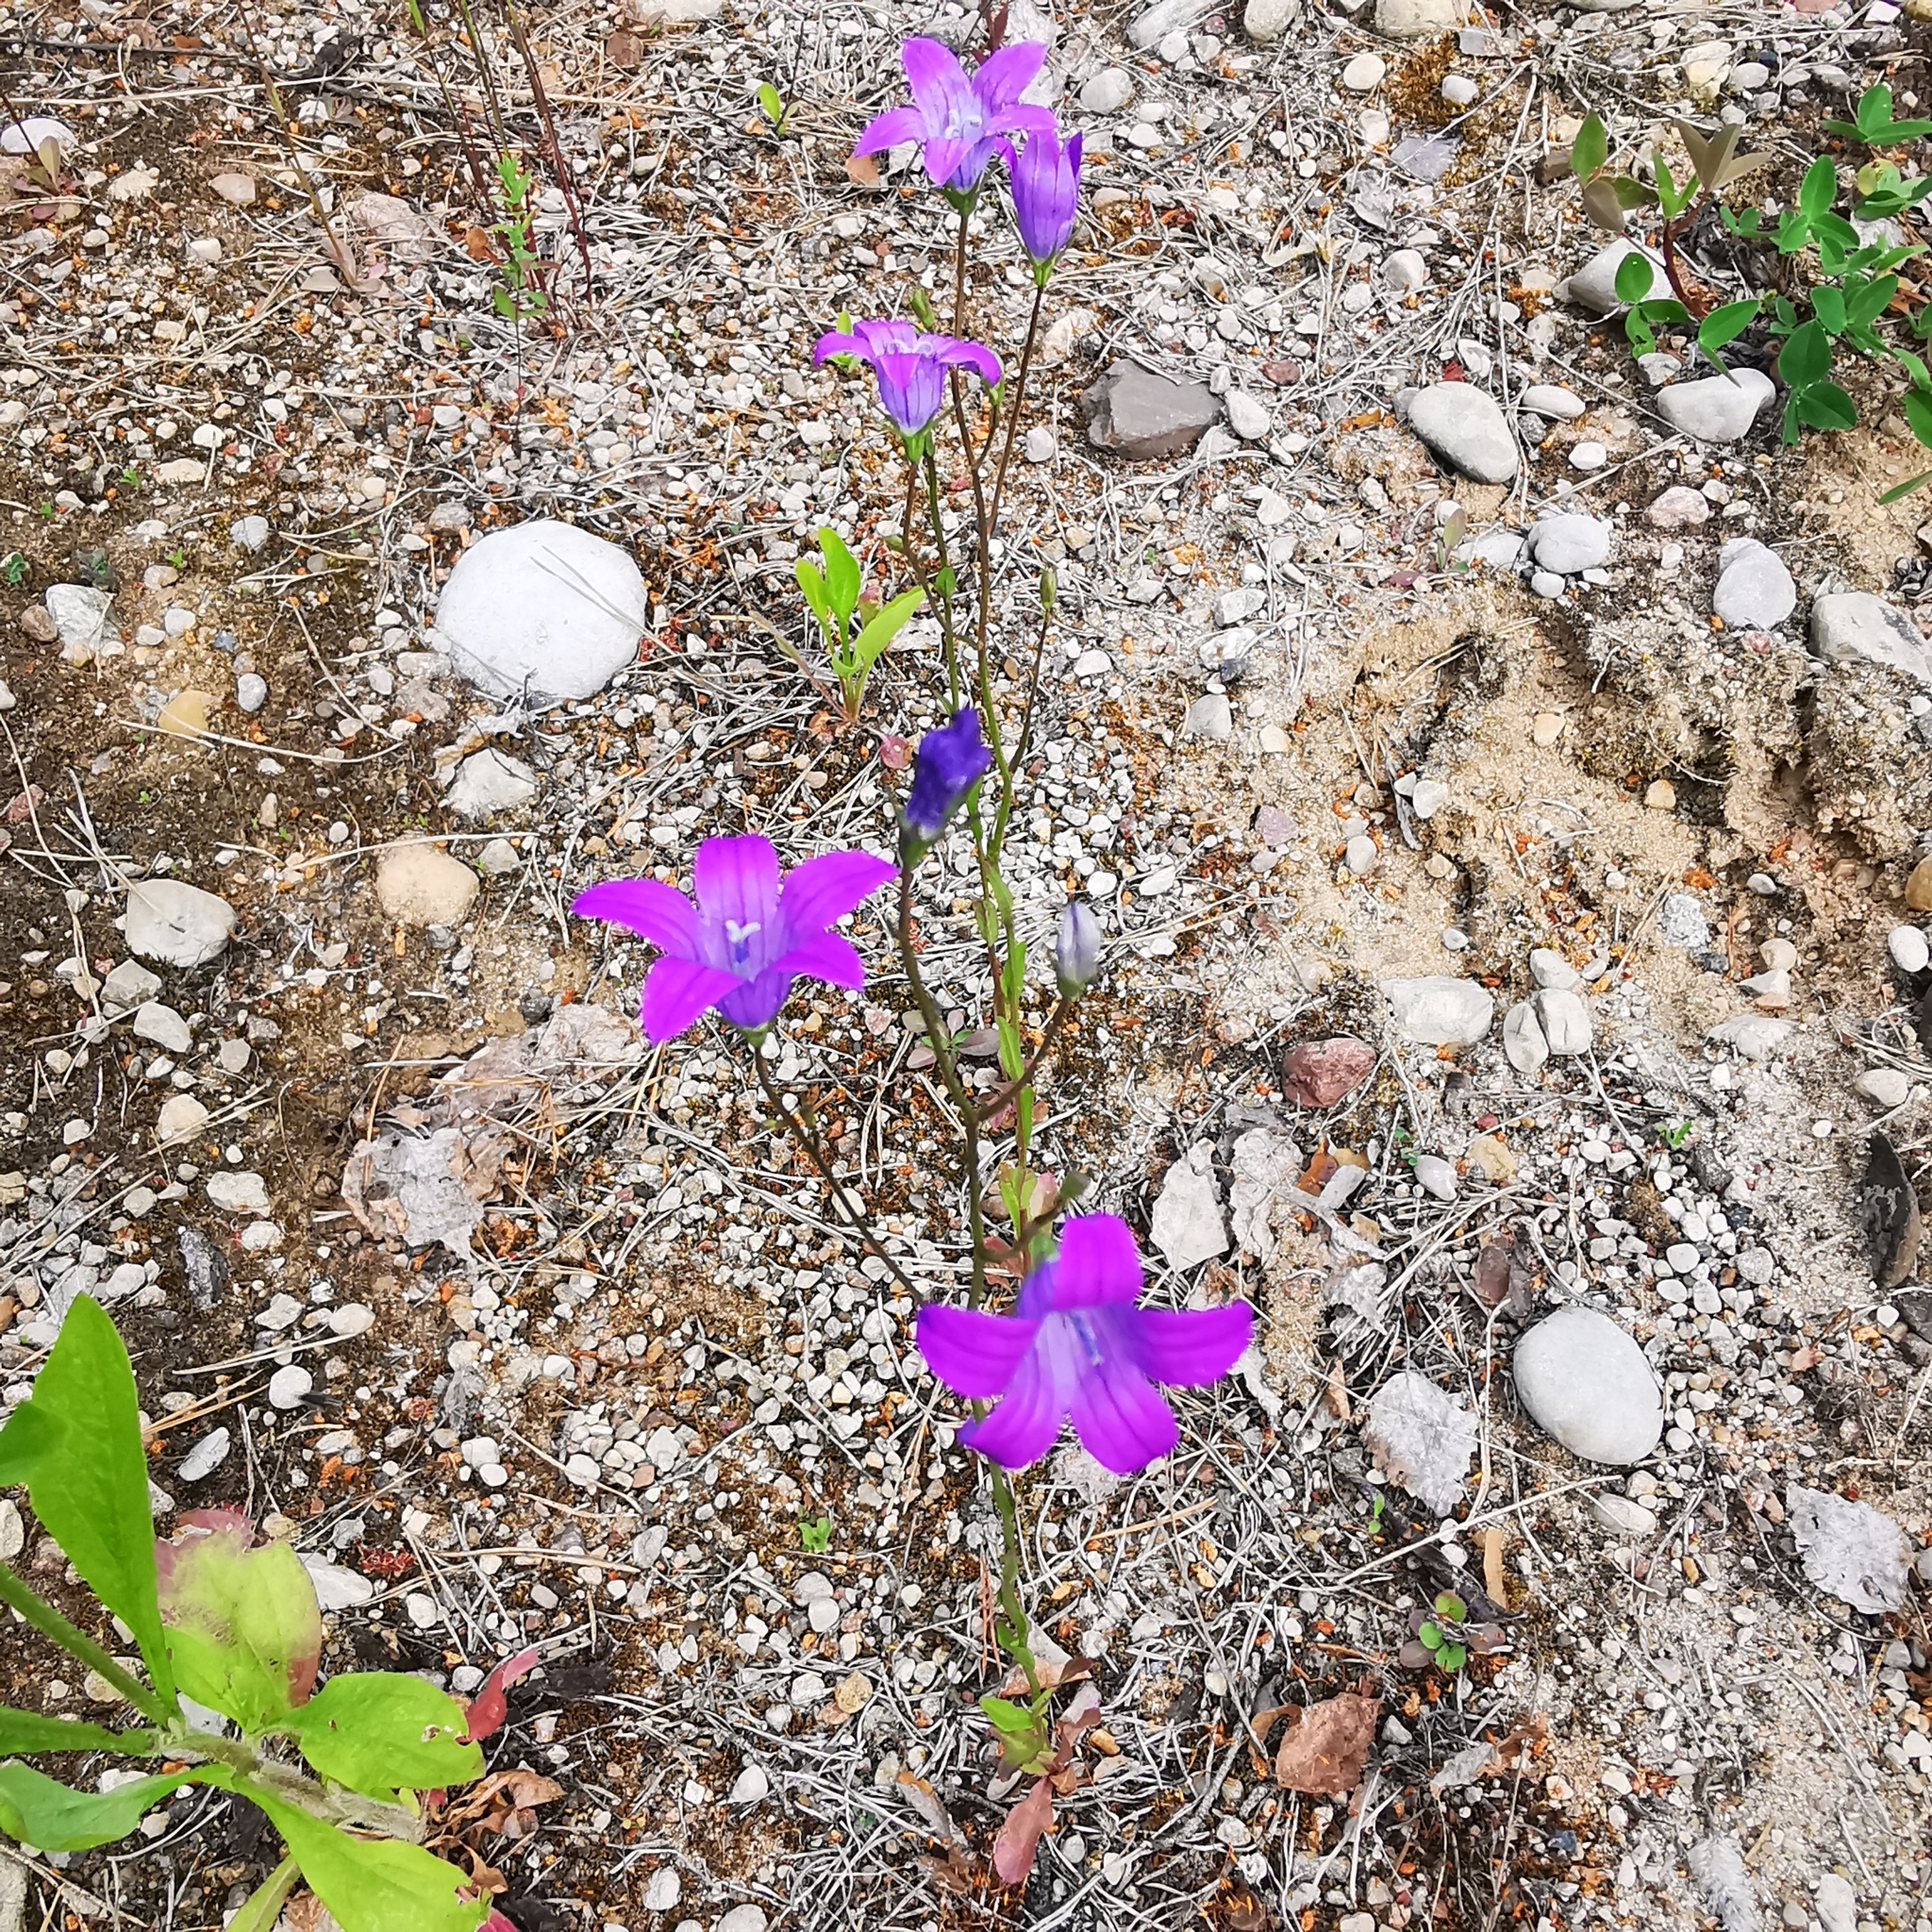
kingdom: Plantae
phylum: Tracheophyta
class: Magnoliopsida
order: Asterales
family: Campanulaceae
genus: Campanula
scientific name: Campanula patula
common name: Spreading bellflower
